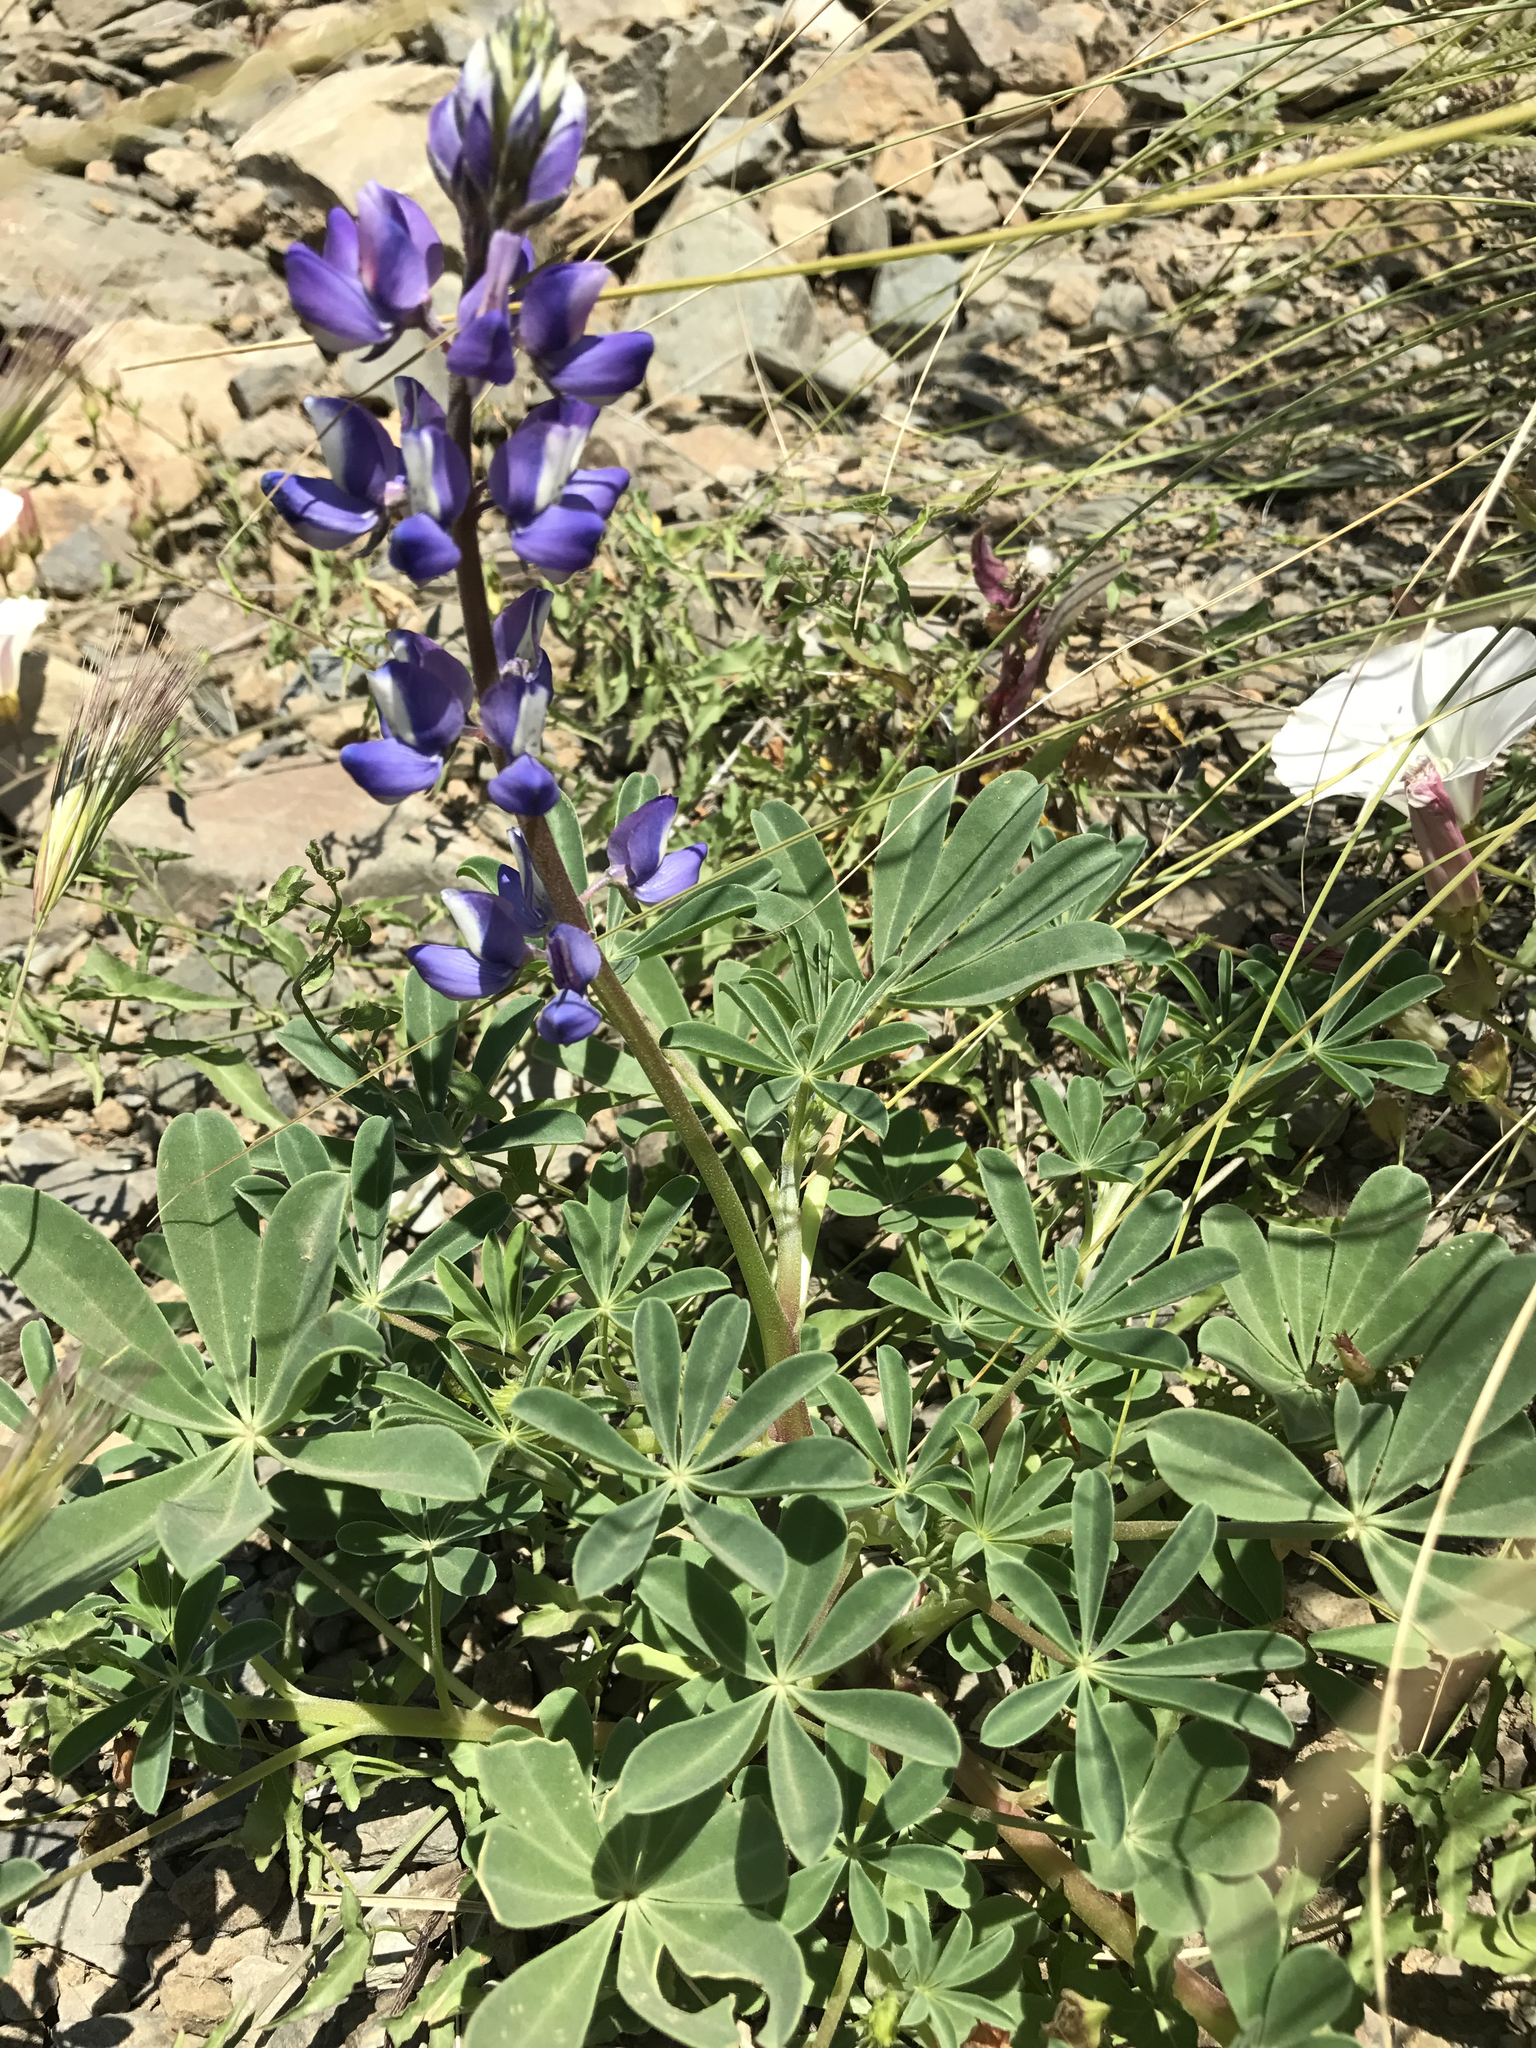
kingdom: Plantae
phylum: Tracheophyta
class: Magnoliopsida
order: Fabales
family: Fabaceae
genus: Lupinus
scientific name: Lupinus succulentus
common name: Arroyo lupine
